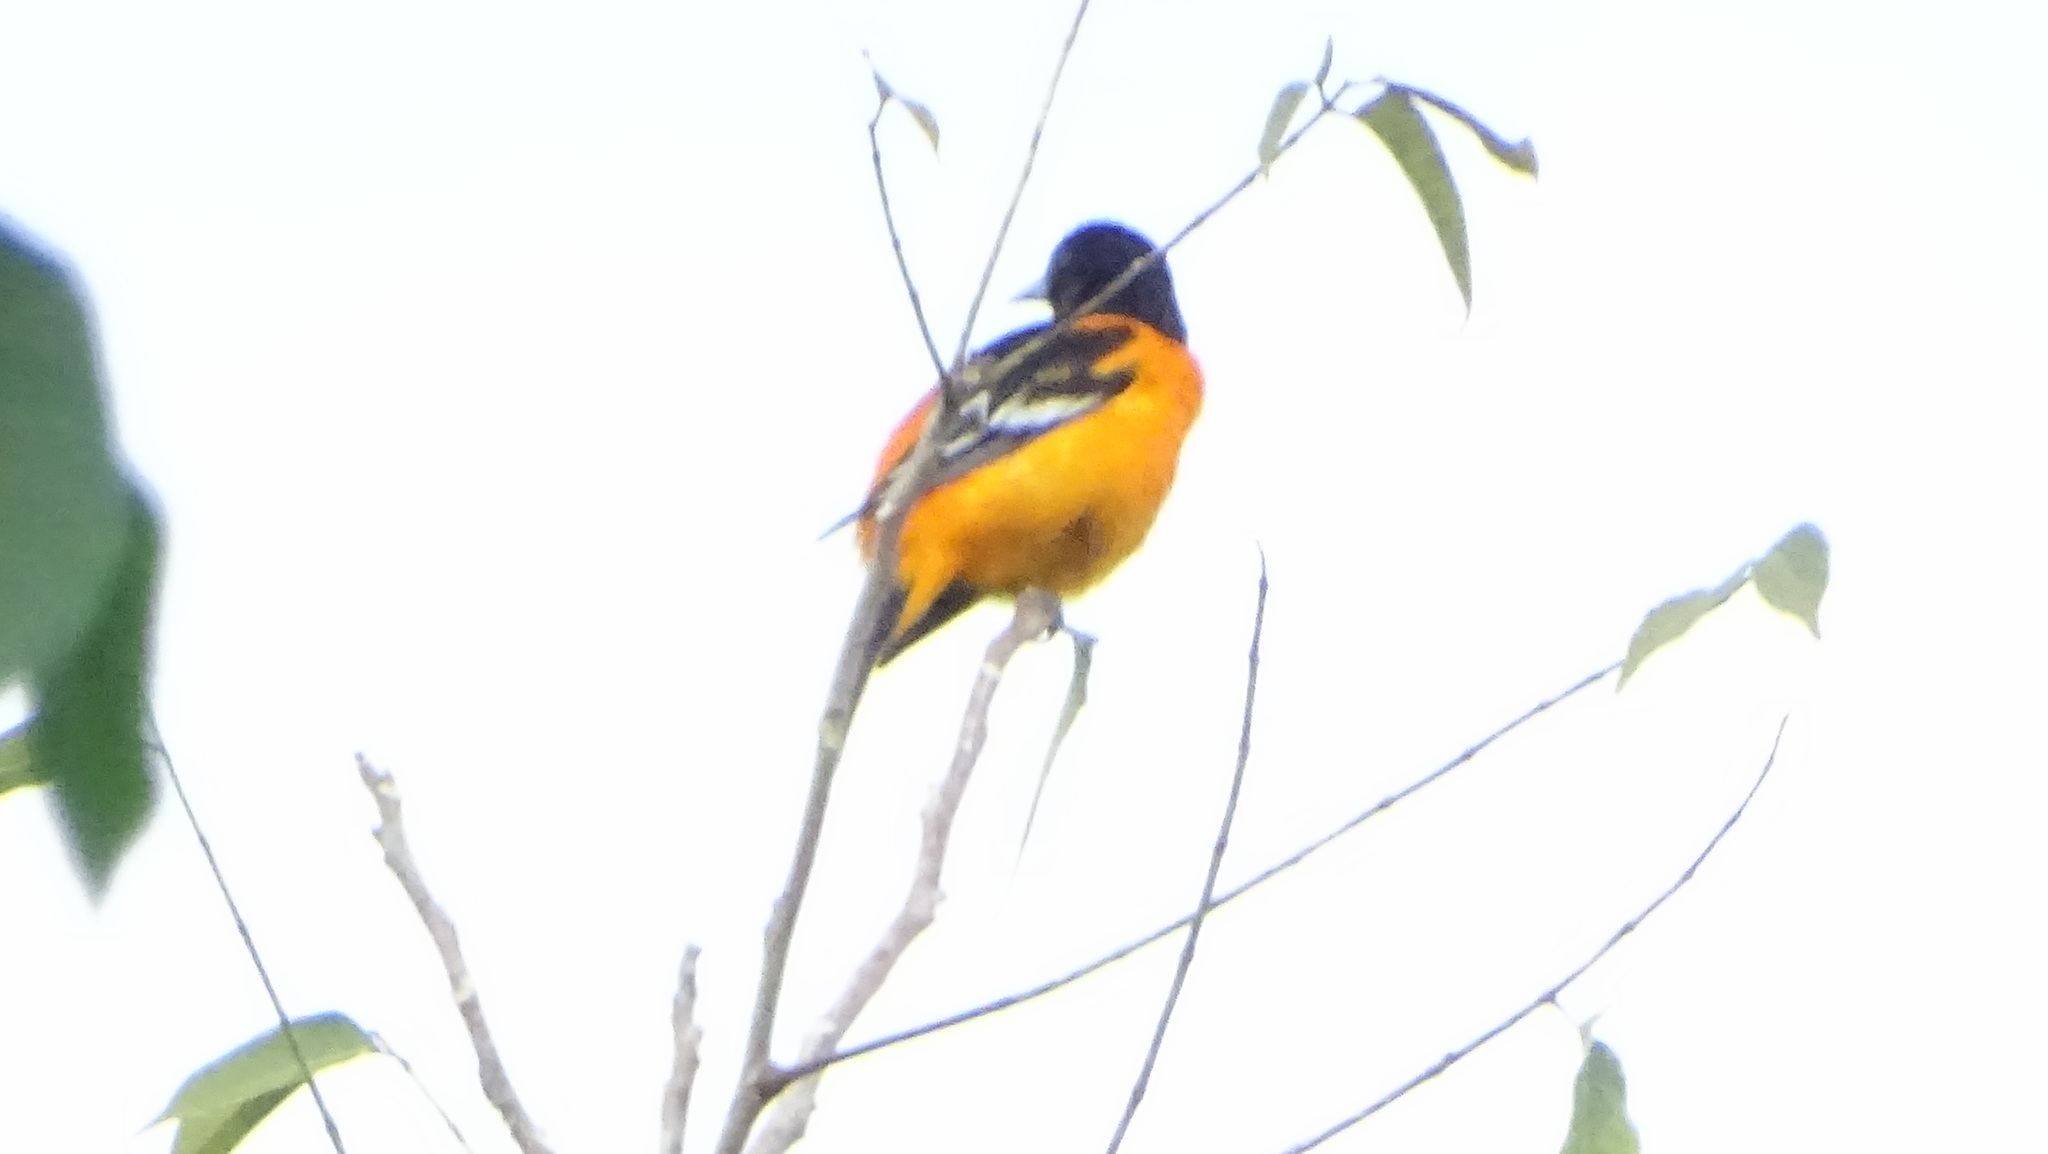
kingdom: Animalia
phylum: Chordata
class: Aves
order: Passeriformes
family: Icteridae
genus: Icterus
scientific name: Icterus galbula
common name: Baltimore oriole
